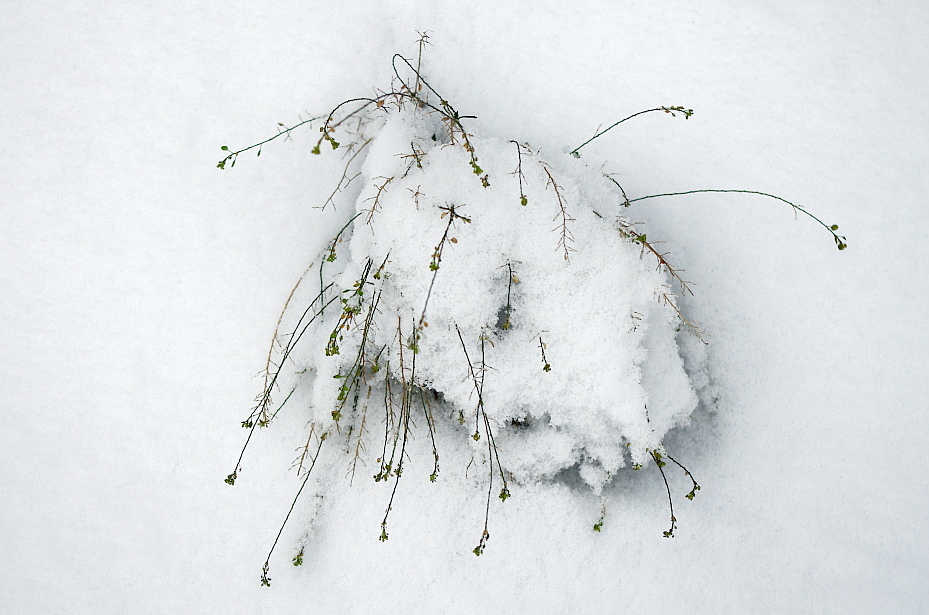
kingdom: Plantae
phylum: Tracheophyta
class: Magnoliopsida
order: Brassicales
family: Brassicaceae
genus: Lepidium
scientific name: Lepidium ruderale
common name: Narrow-leaved pepperwort
